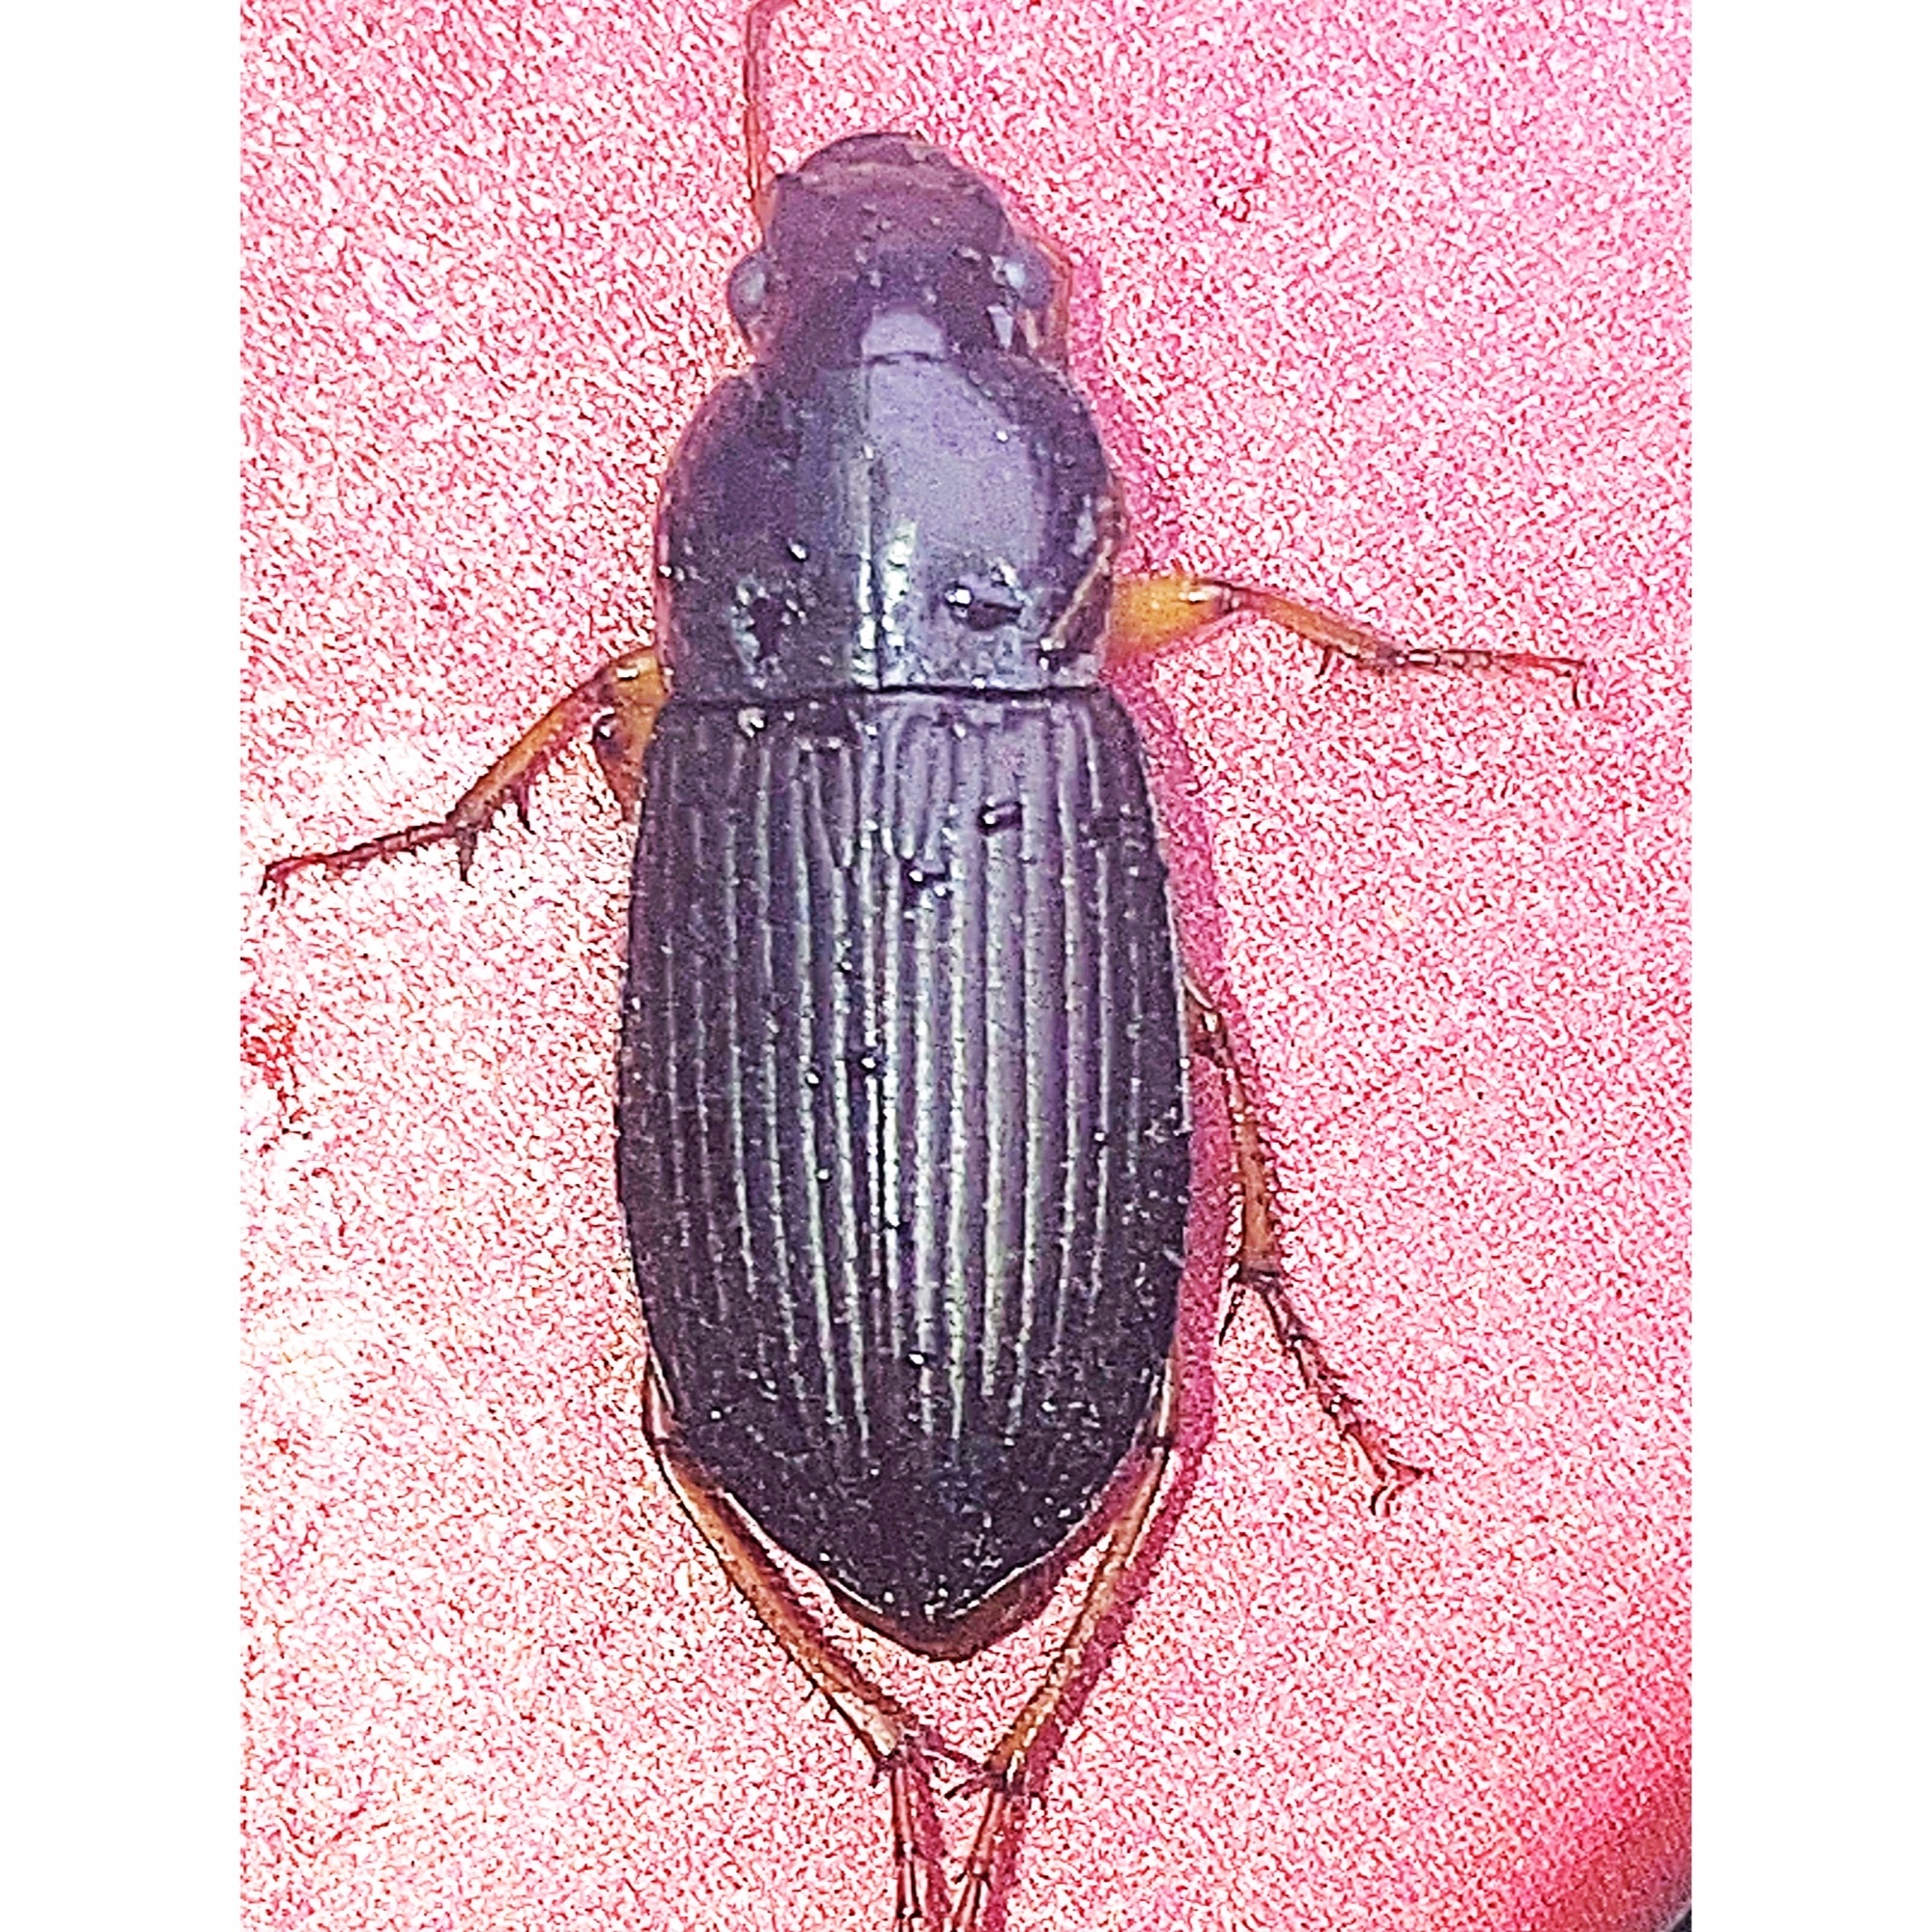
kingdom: Animalia
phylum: Arthropoda
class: Insecta
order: Coleoptera
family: Carabidae
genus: Harpalus
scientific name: Harpalus pensylvanicus
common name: Pennsylvania dingy ground beetle
